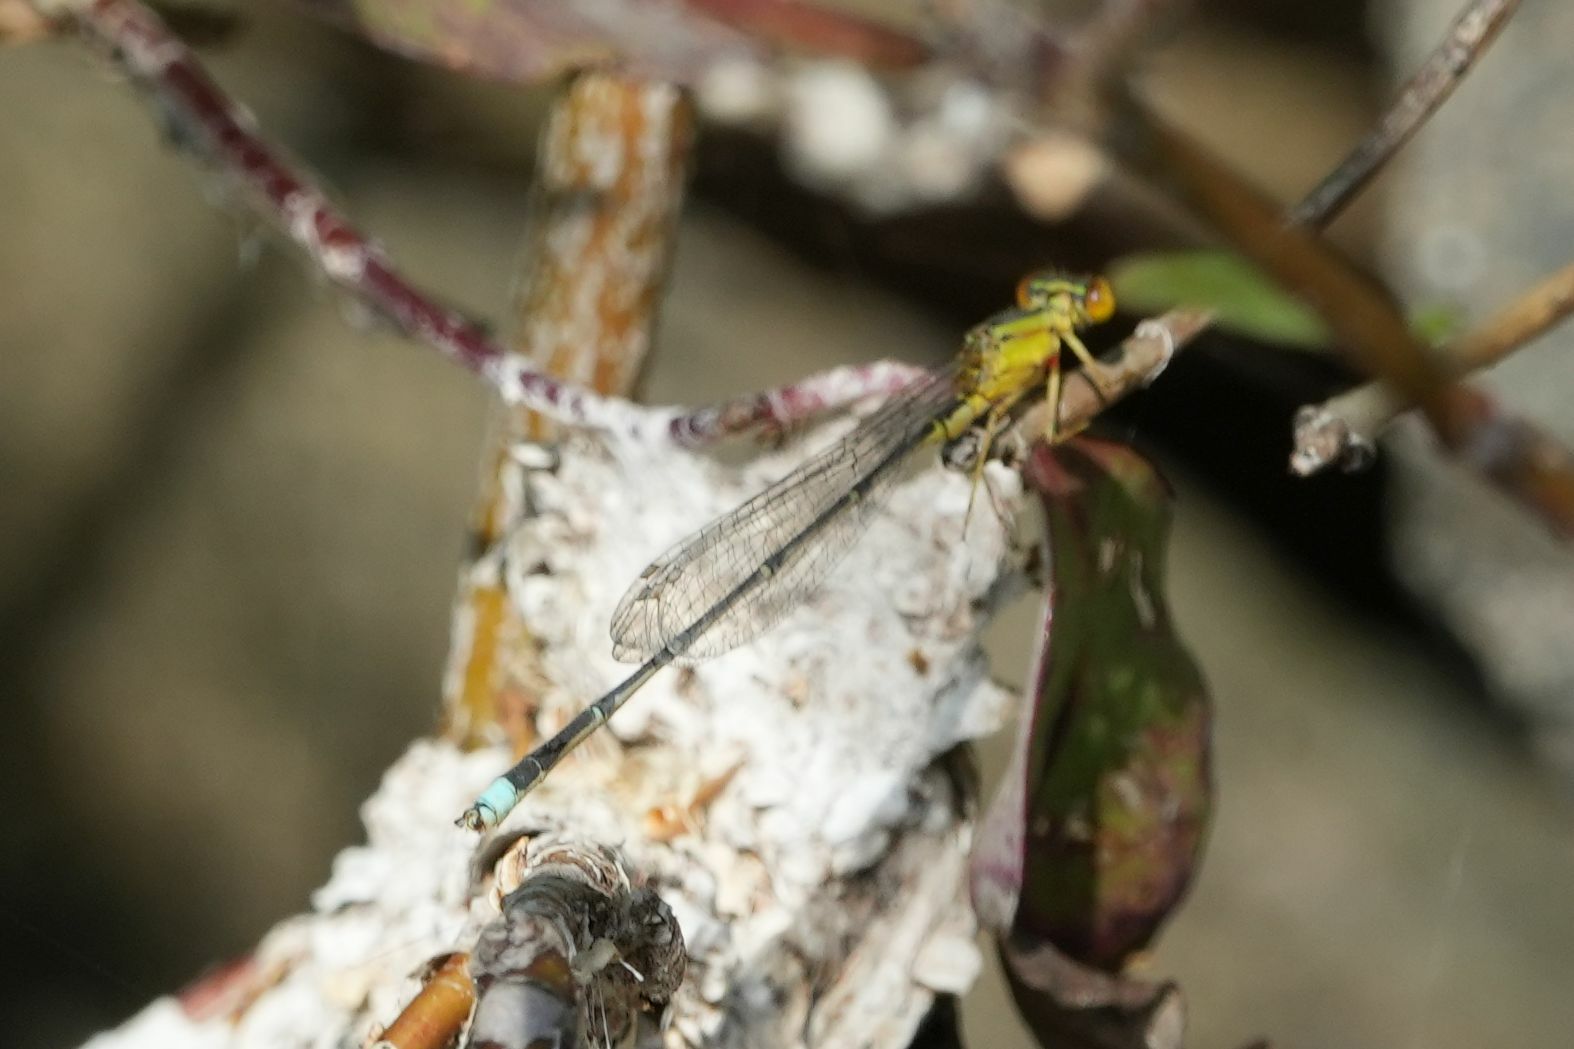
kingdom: Animalia
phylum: Arthropoda
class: Insecta
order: Odonata
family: Coenagrionidae
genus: Enallagma
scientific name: Enallagma vesperum
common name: Vesper bluet
